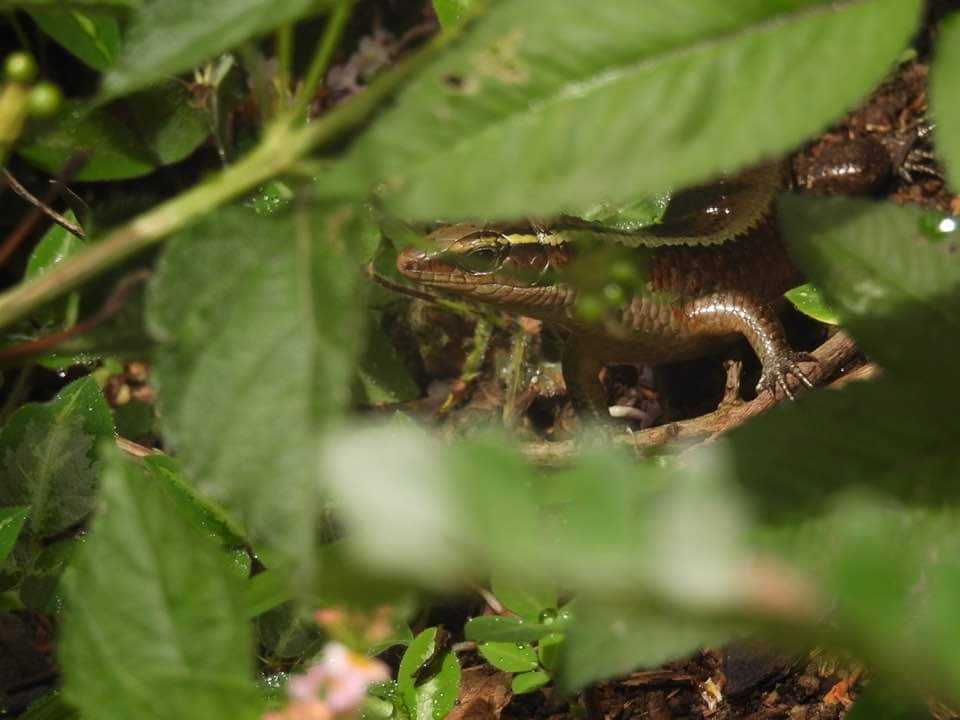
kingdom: Animalia
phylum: Chordata
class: Squamata
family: Gerrhosauridae
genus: Zonosaurus
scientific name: Zonosaurus madagascariensis
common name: Madagascar girdled lizard
